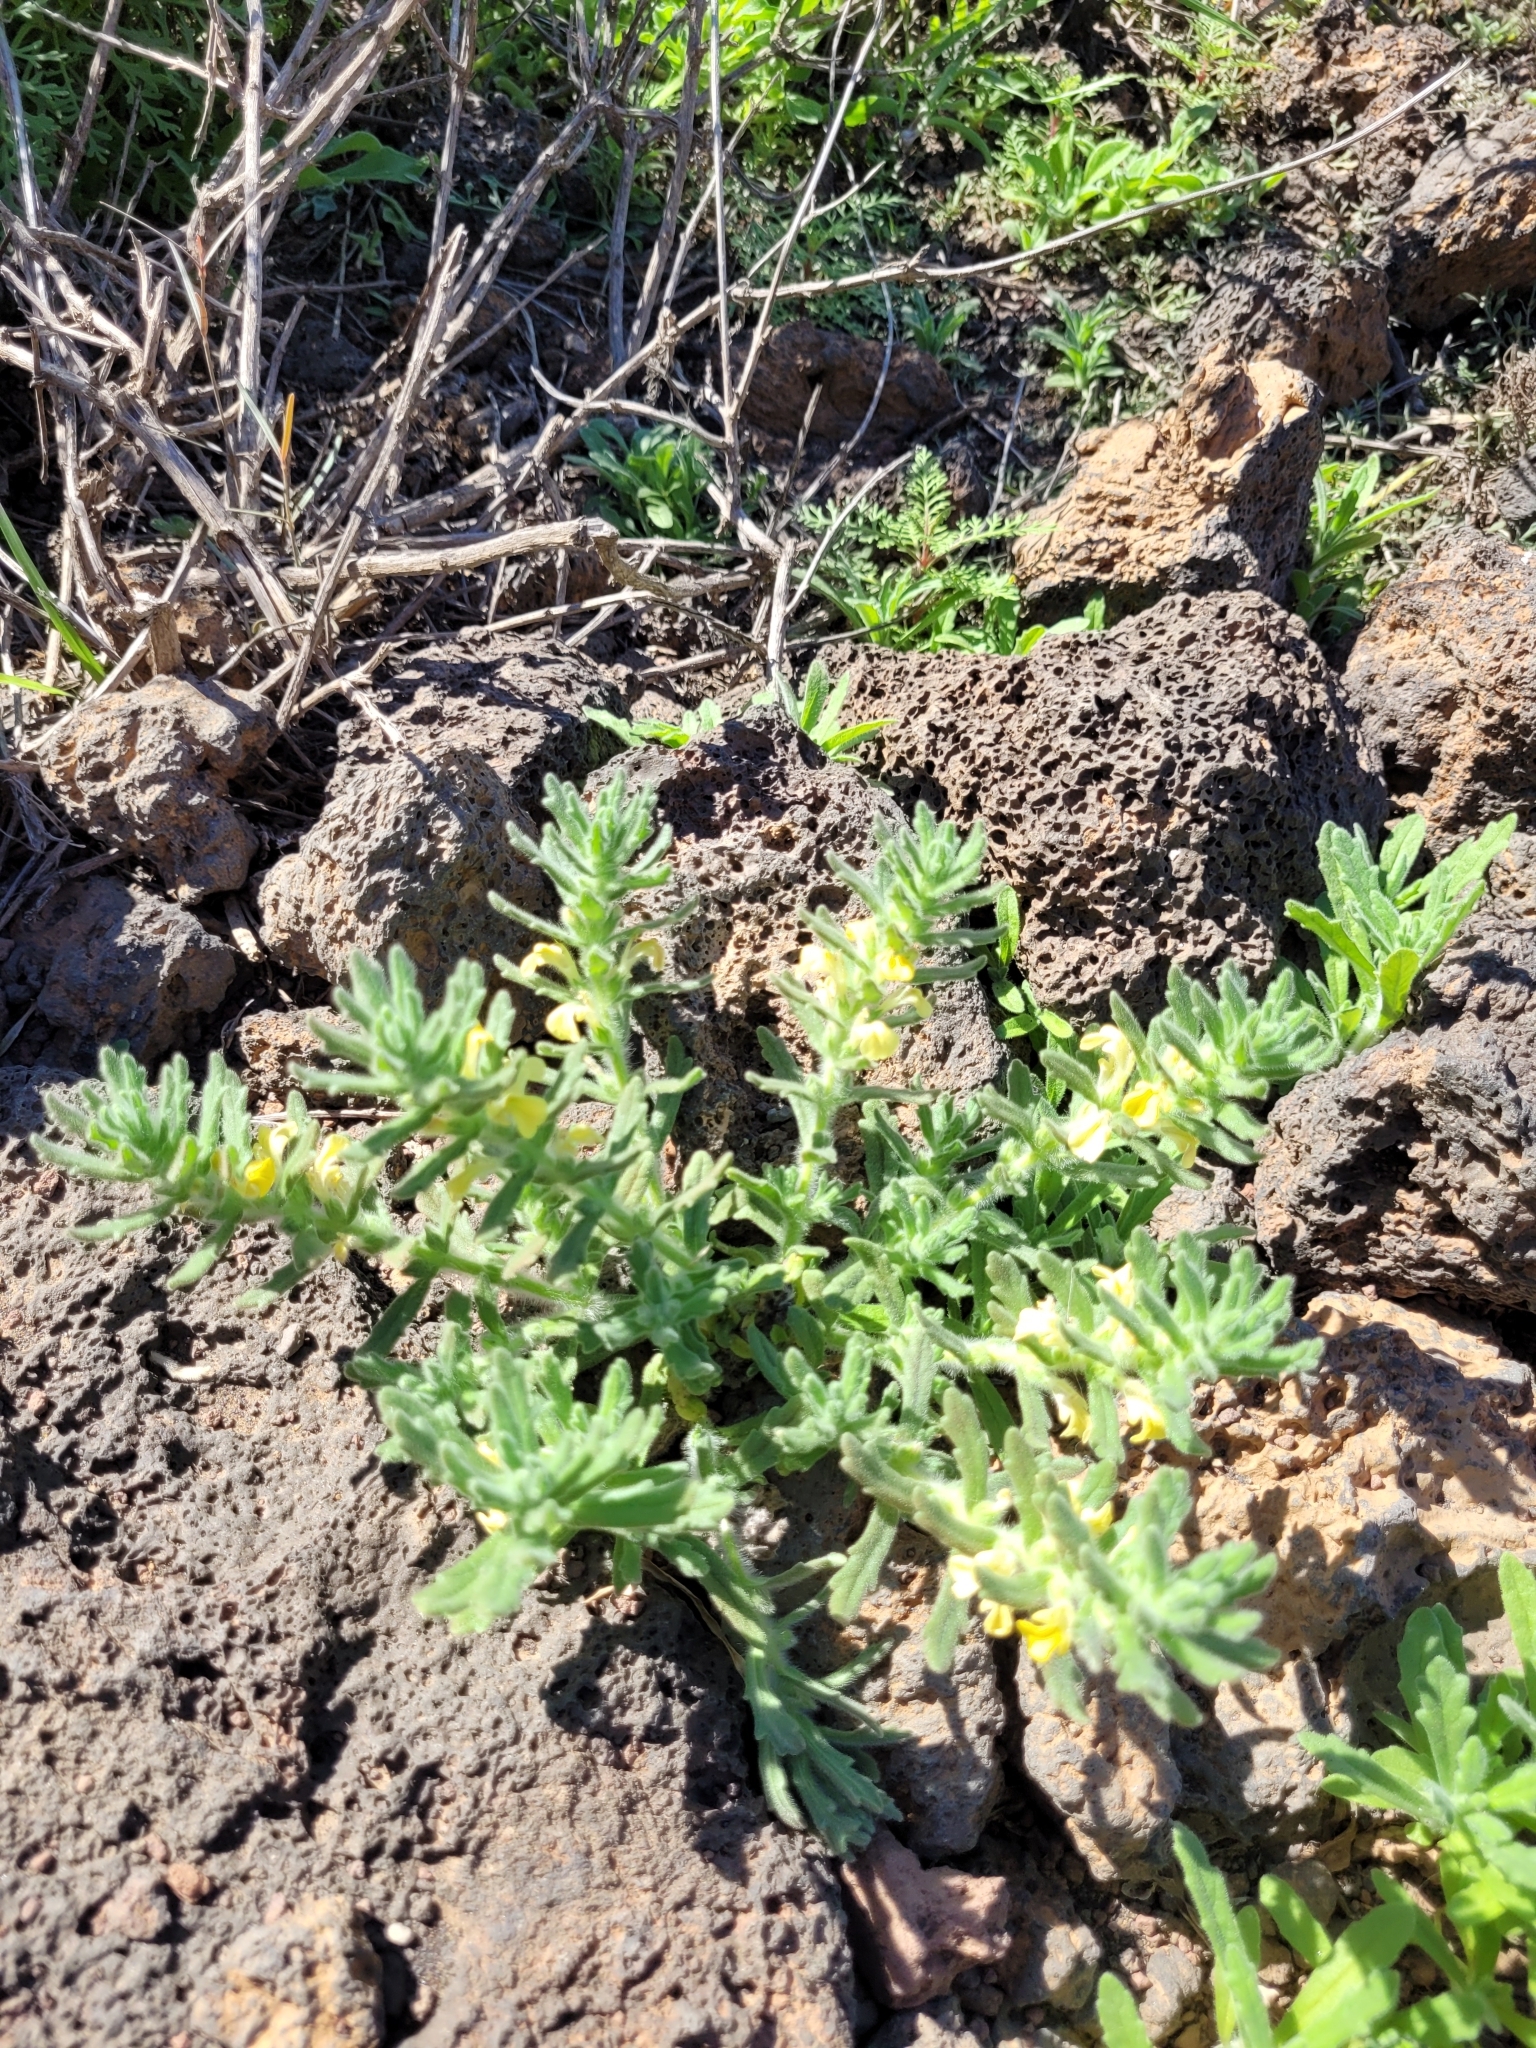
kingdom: Plantae
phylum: Tracheophyta
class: Magnoliopsida
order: Lamiales
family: Lamiaceae
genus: Ajuga
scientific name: Ajuga iva
